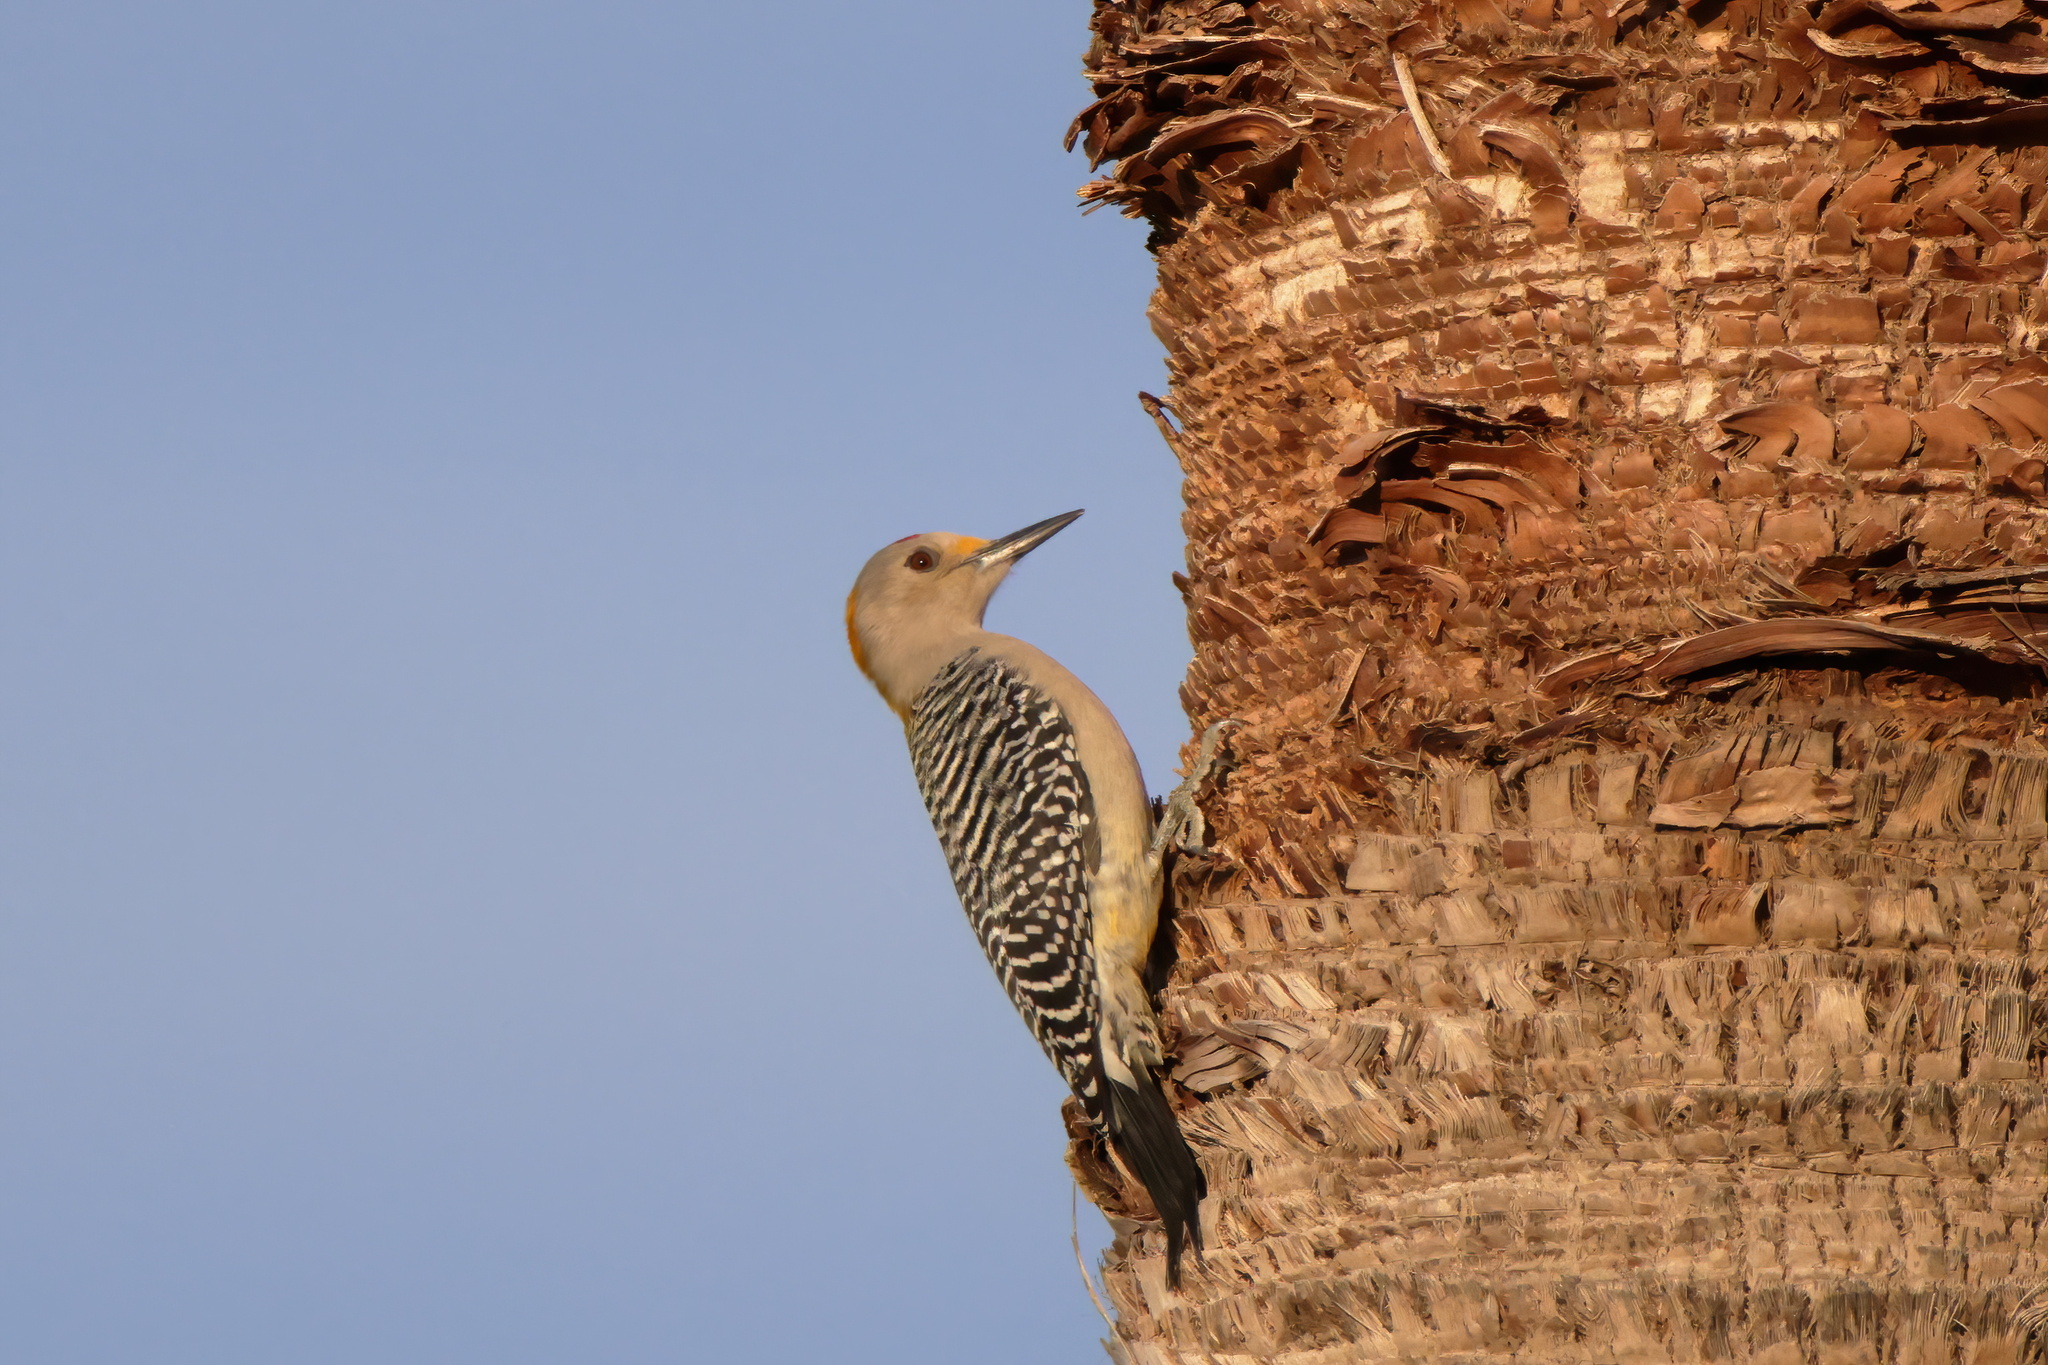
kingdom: Animalia
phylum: Chordata
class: Aves
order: Piciformes
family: Picidae
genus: Melanerpes
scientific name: Melanerpes aurifrons
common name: Golden-fronted woodpecker
